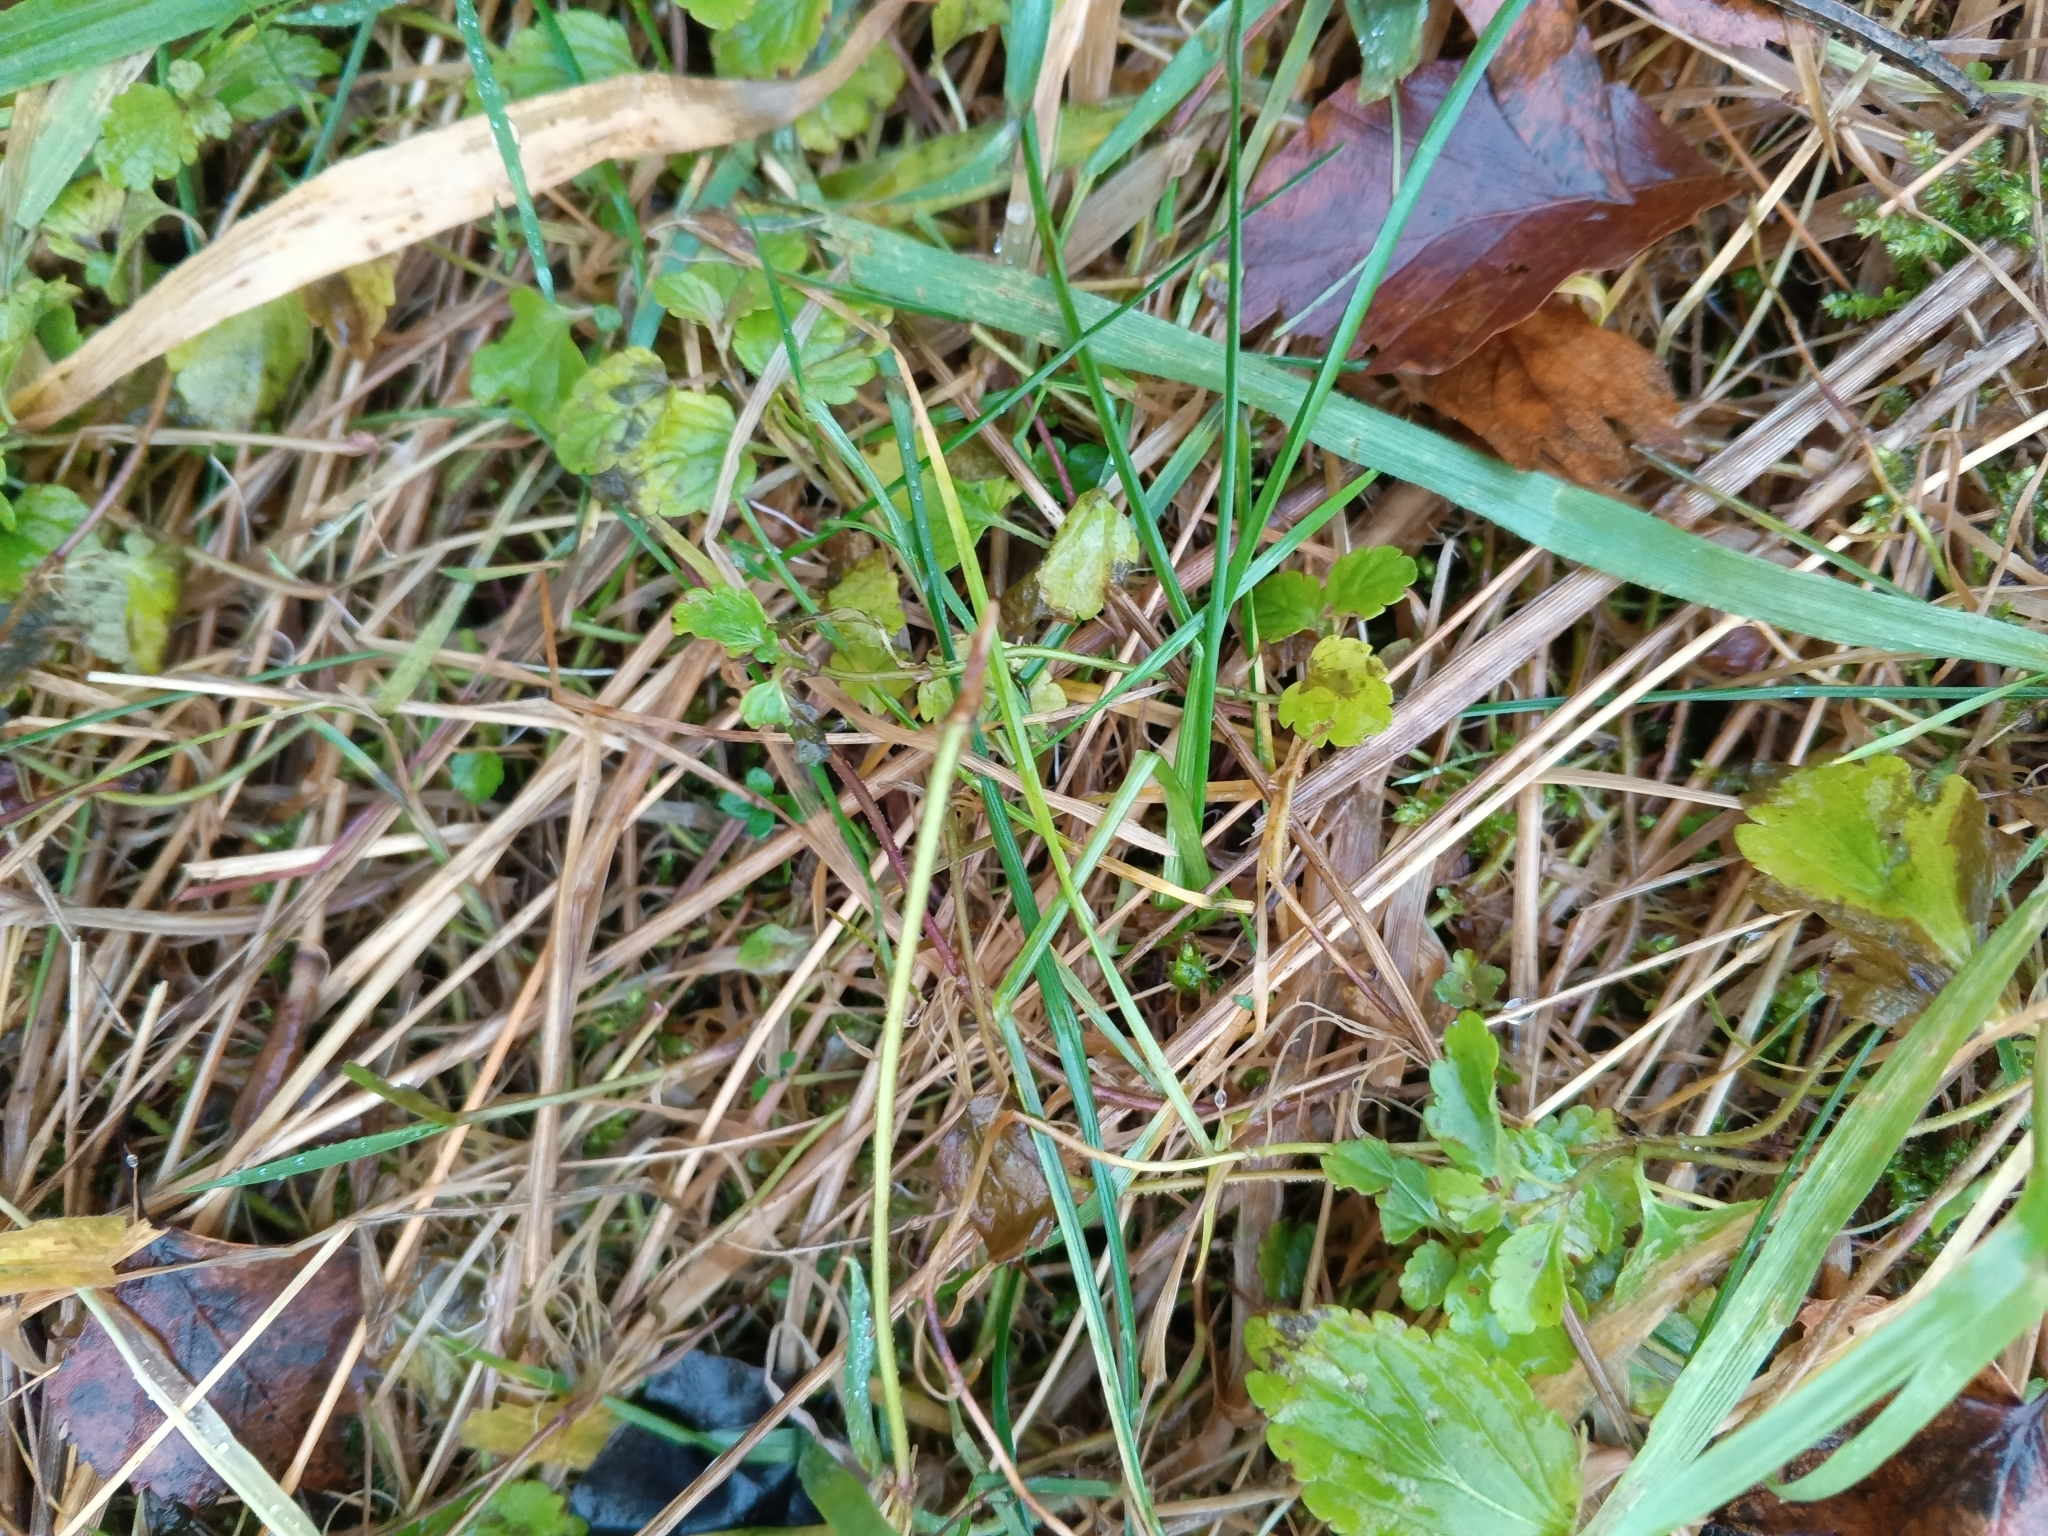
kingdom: Plantae
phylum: Tracheophyta
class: Magnoliopsida
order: Lamiales
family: Plantaginaceae
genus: Veronica
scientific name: Veronica chamaedrys
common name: Germander speedwell
